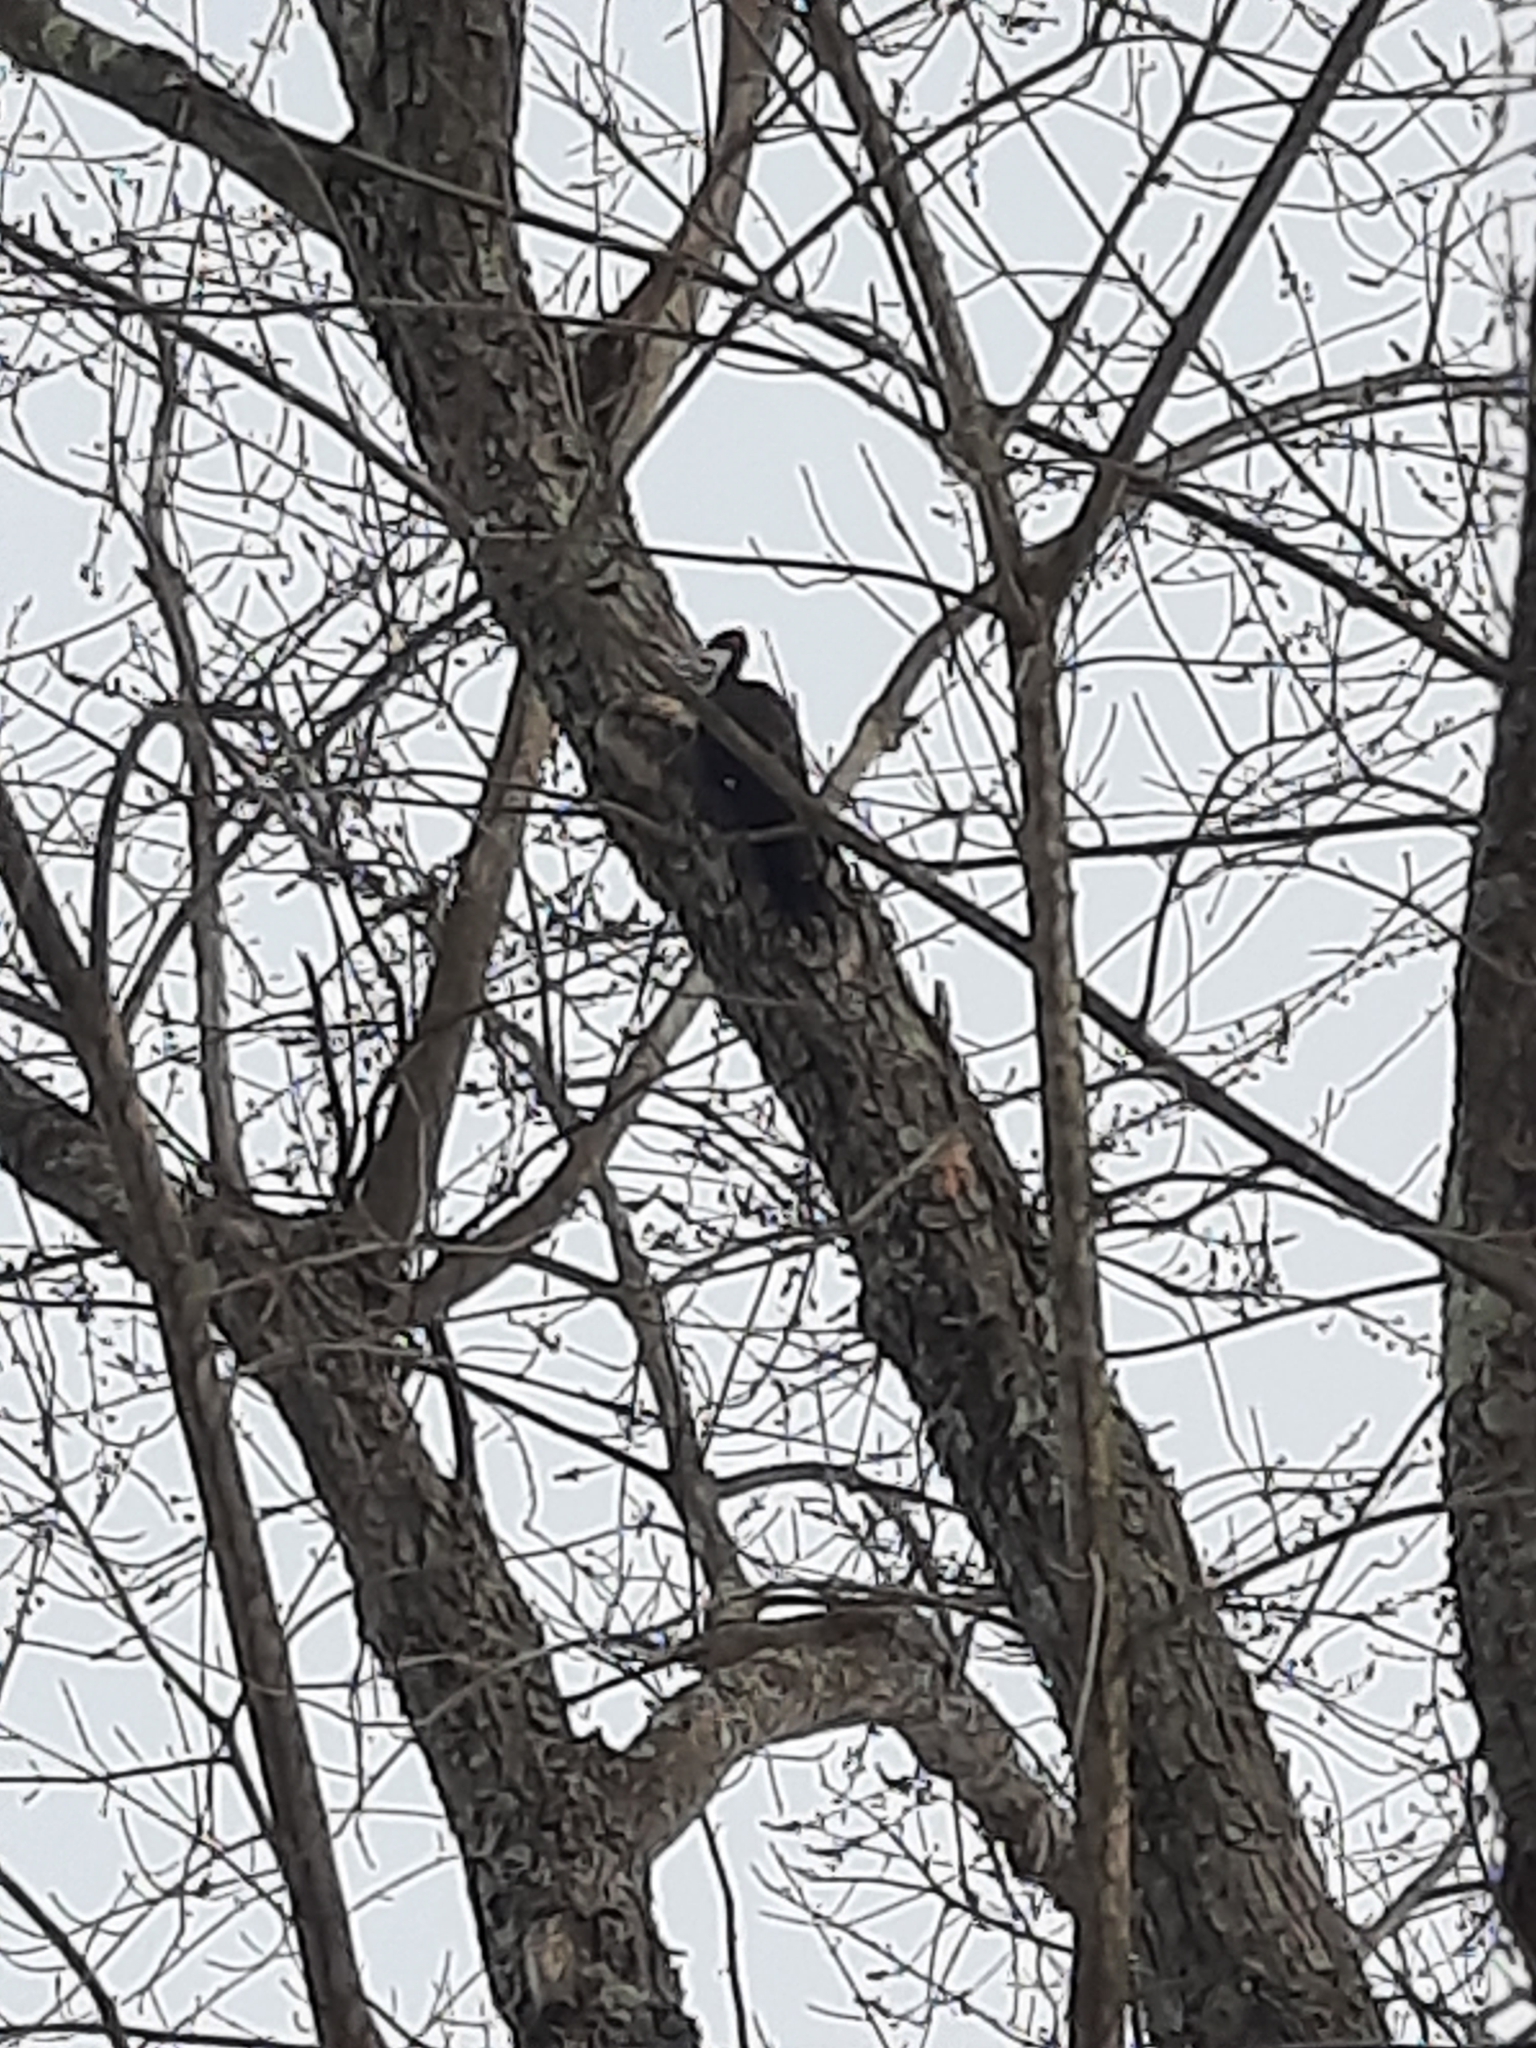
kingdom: Animalia
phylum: Chordata
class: Aves
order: Piciformes
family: Picidae
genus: Dryocopus
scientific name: Dryocopus pileatus
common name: Pileated woodpecker
